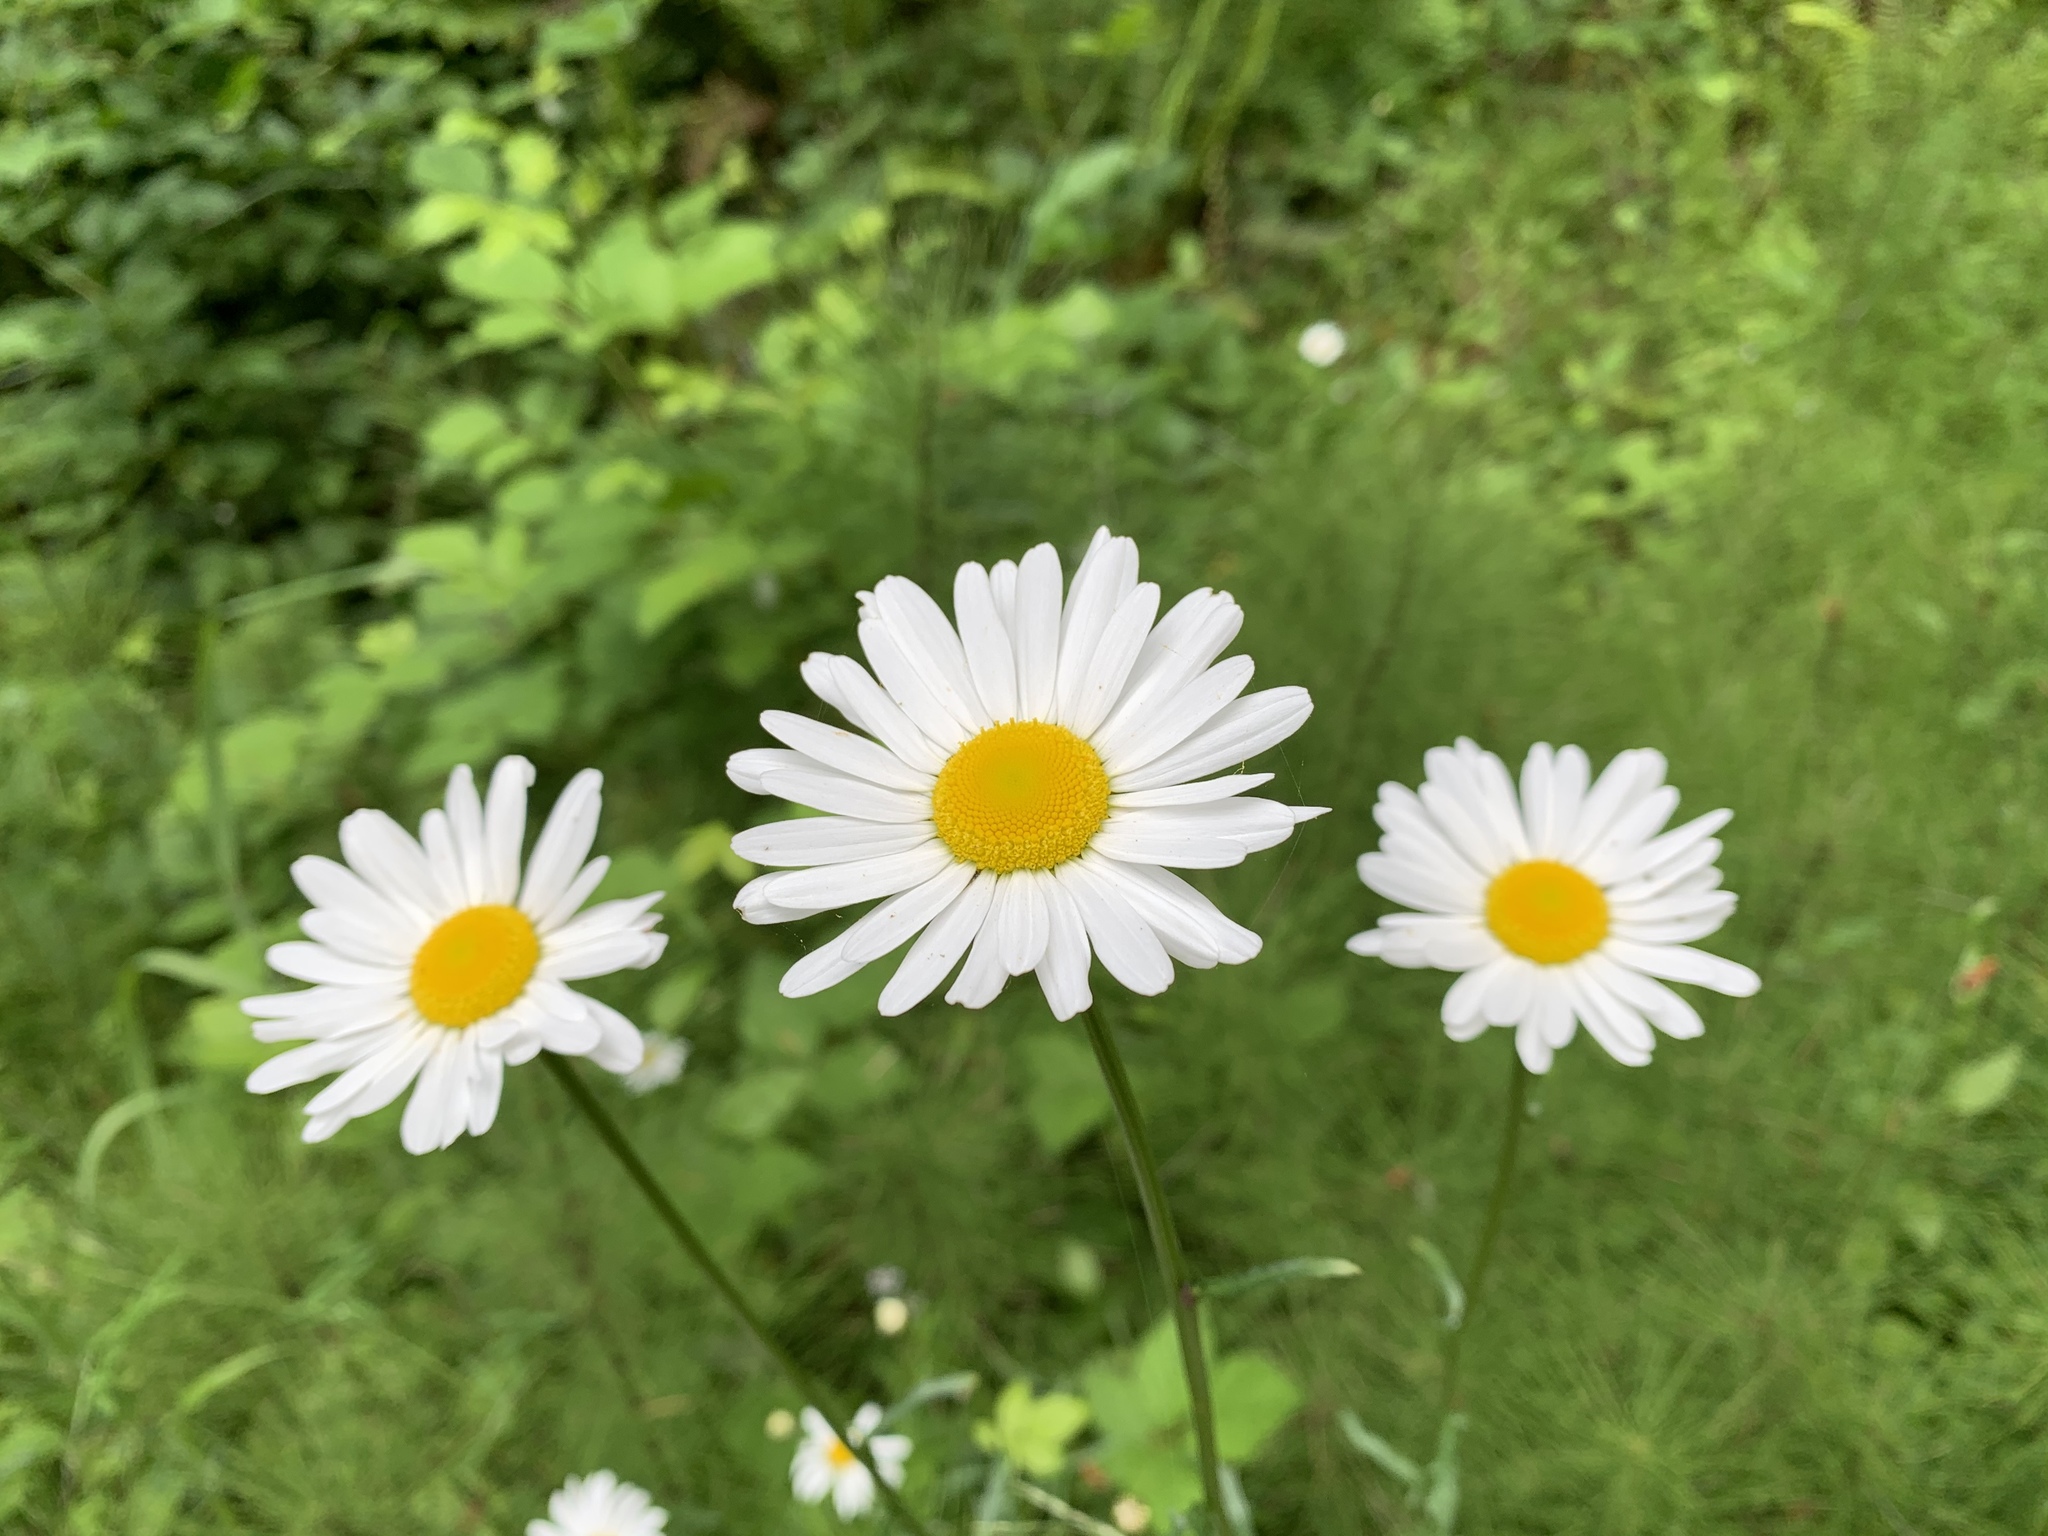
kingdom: Plantae
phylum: Tracheophyta
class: Magnoliopsida
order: Asterales
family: Asteraceae
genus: Leucanthemum
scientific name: Leucanthemum vulgare
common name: Oxeye daisy
